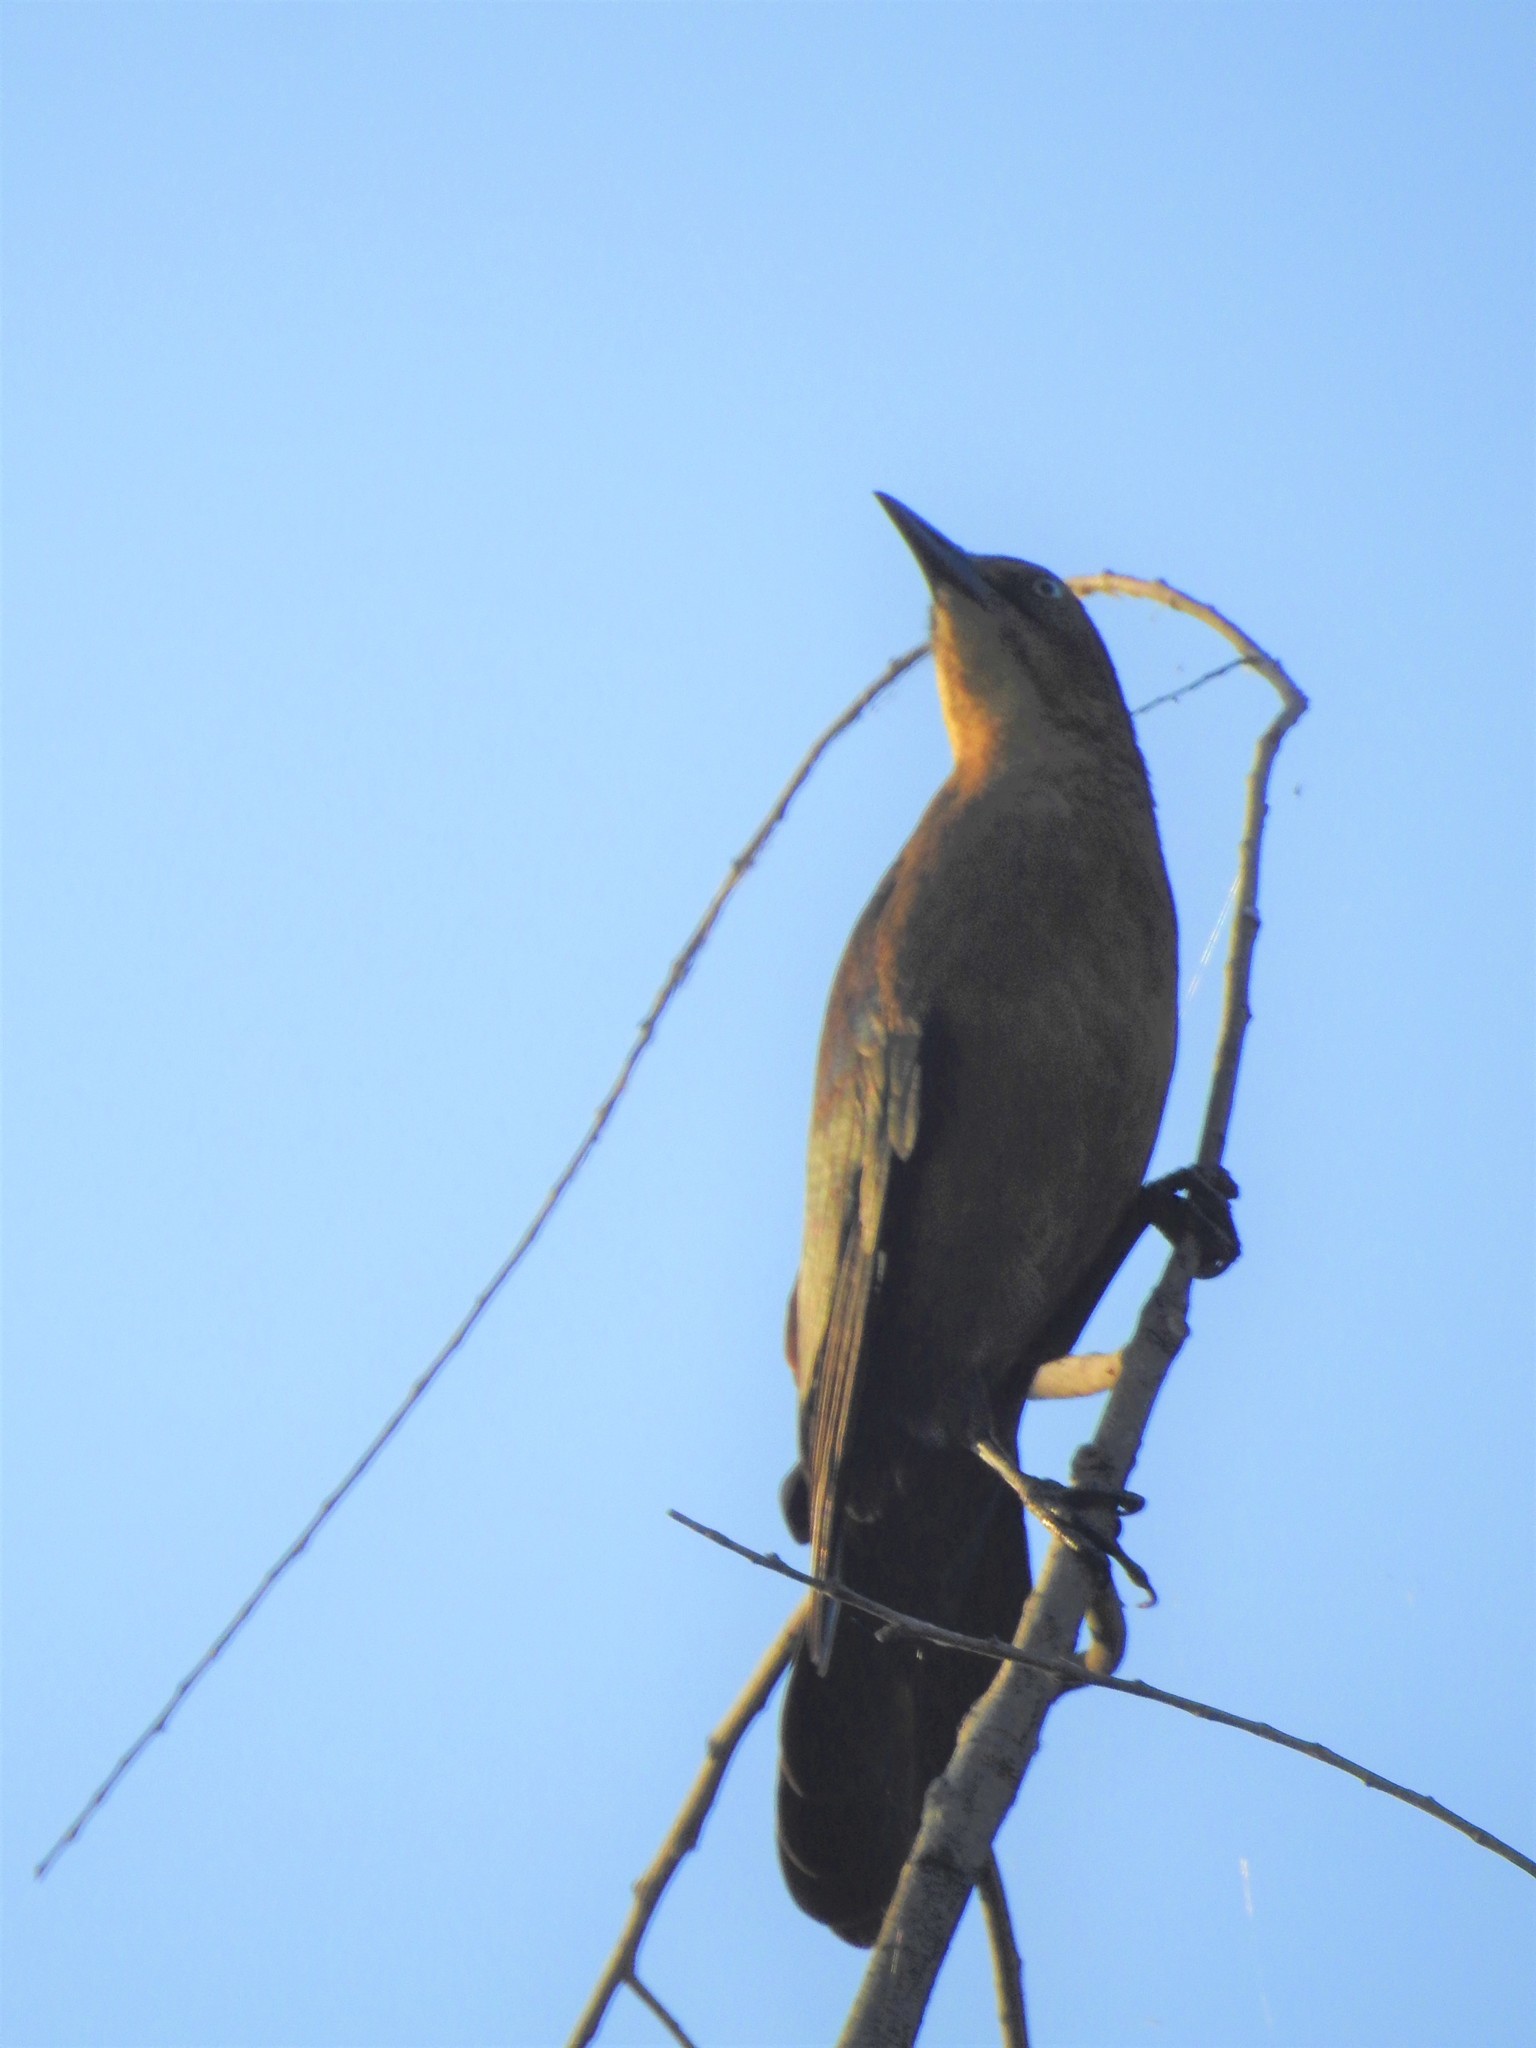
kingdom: Animalia
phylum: Chordata
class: Aves
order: Passeriformes
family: Icteridae
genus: Quiscalus
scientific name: Quiscalus mexicanus
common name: Great-tailed grackle
